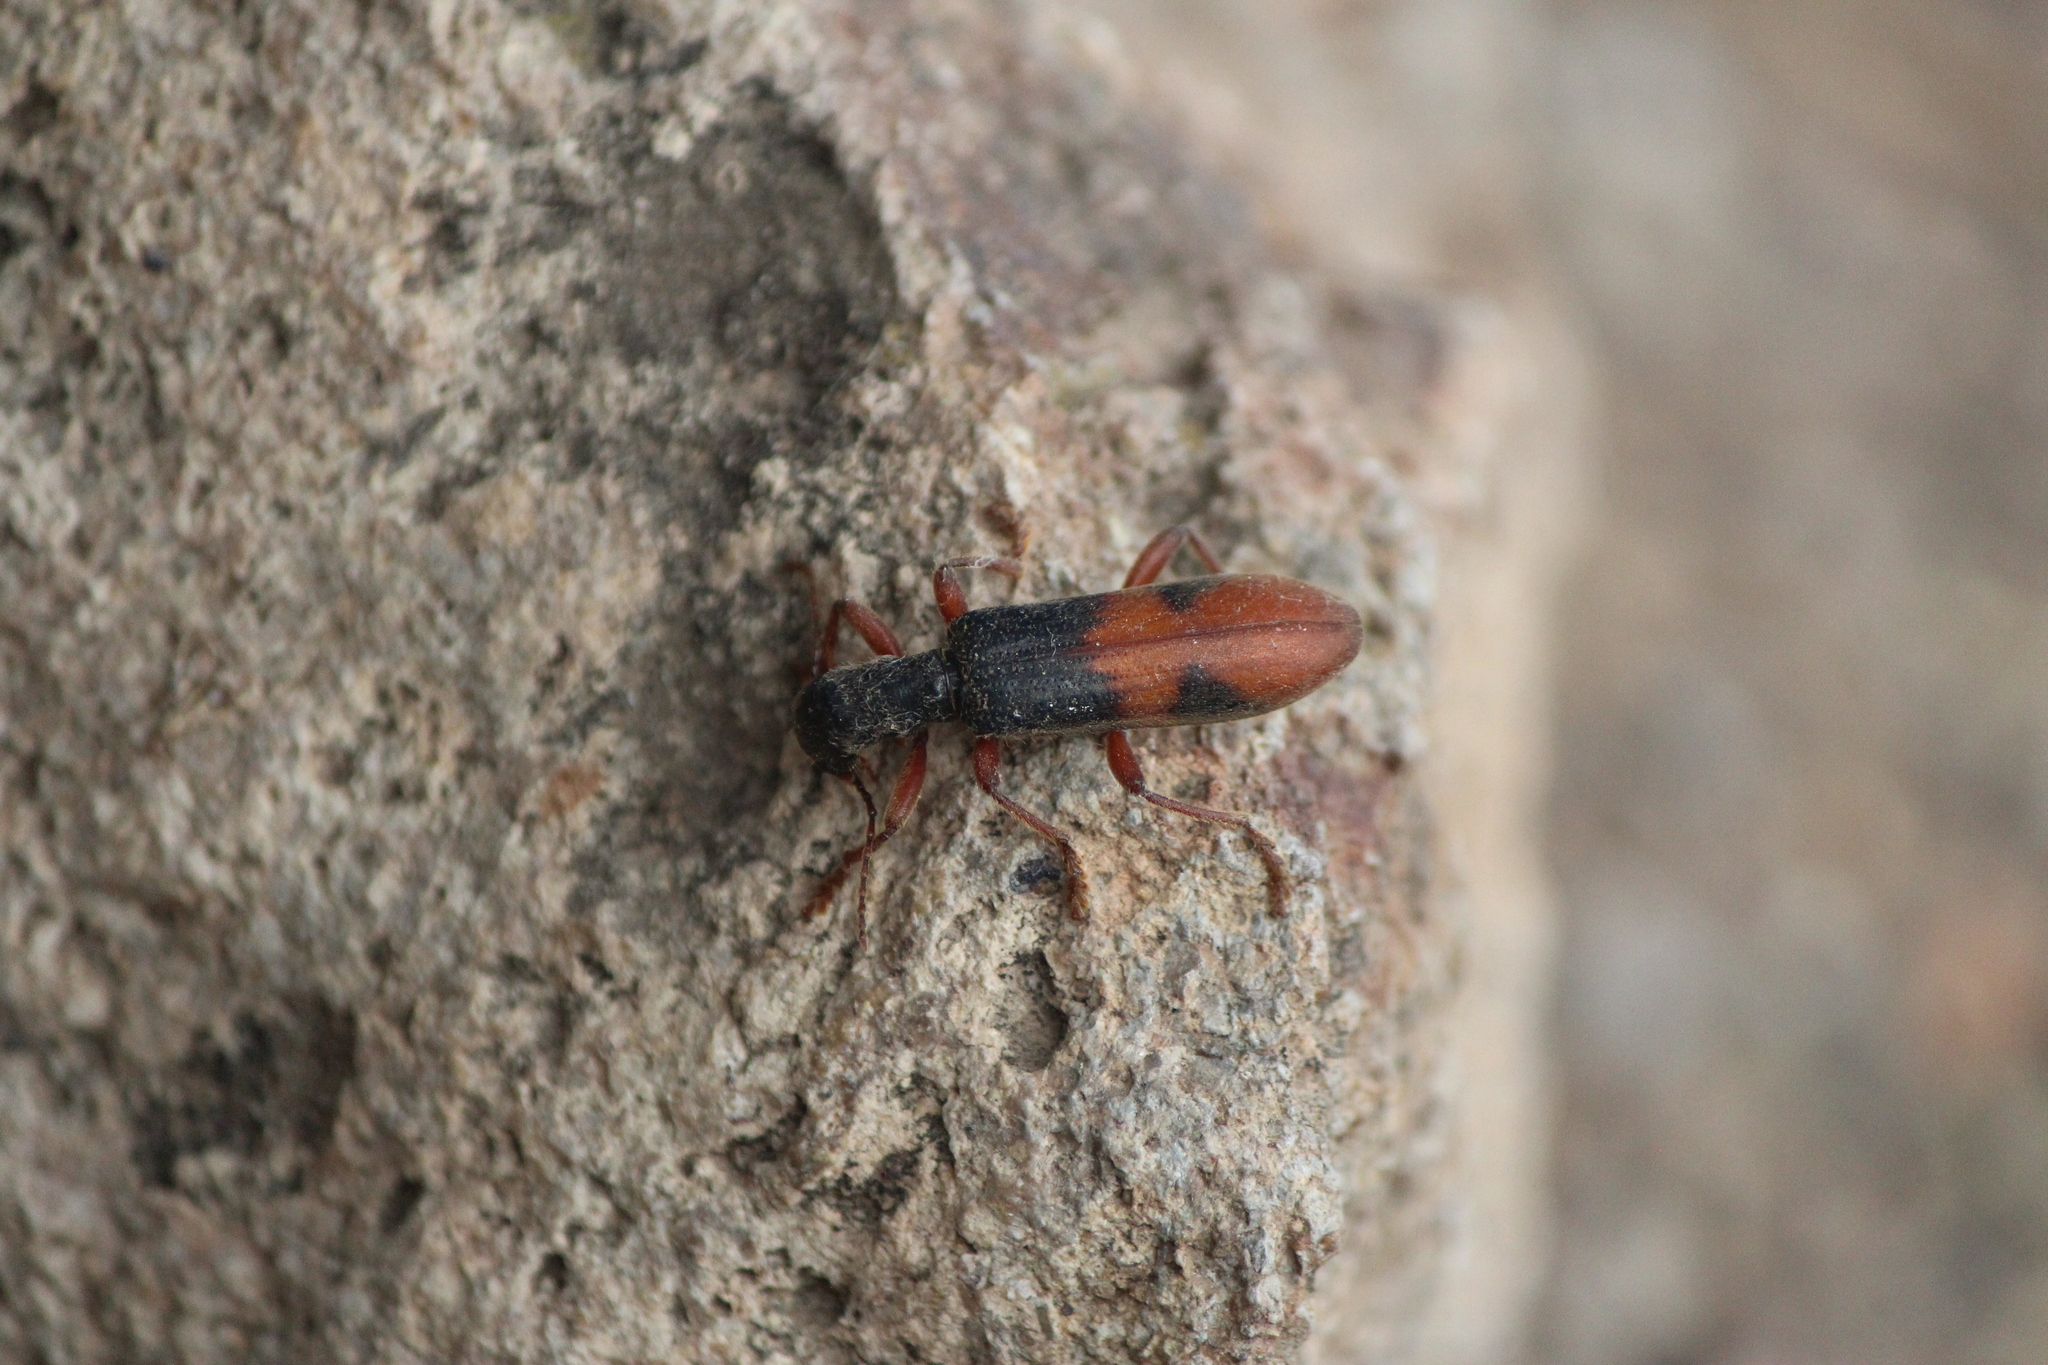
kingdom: Animalia
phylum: Arthropoda
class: Insecta
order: Coleoptera
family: Cleridae
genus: Cymatodera
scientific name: Cymatodera hopei
